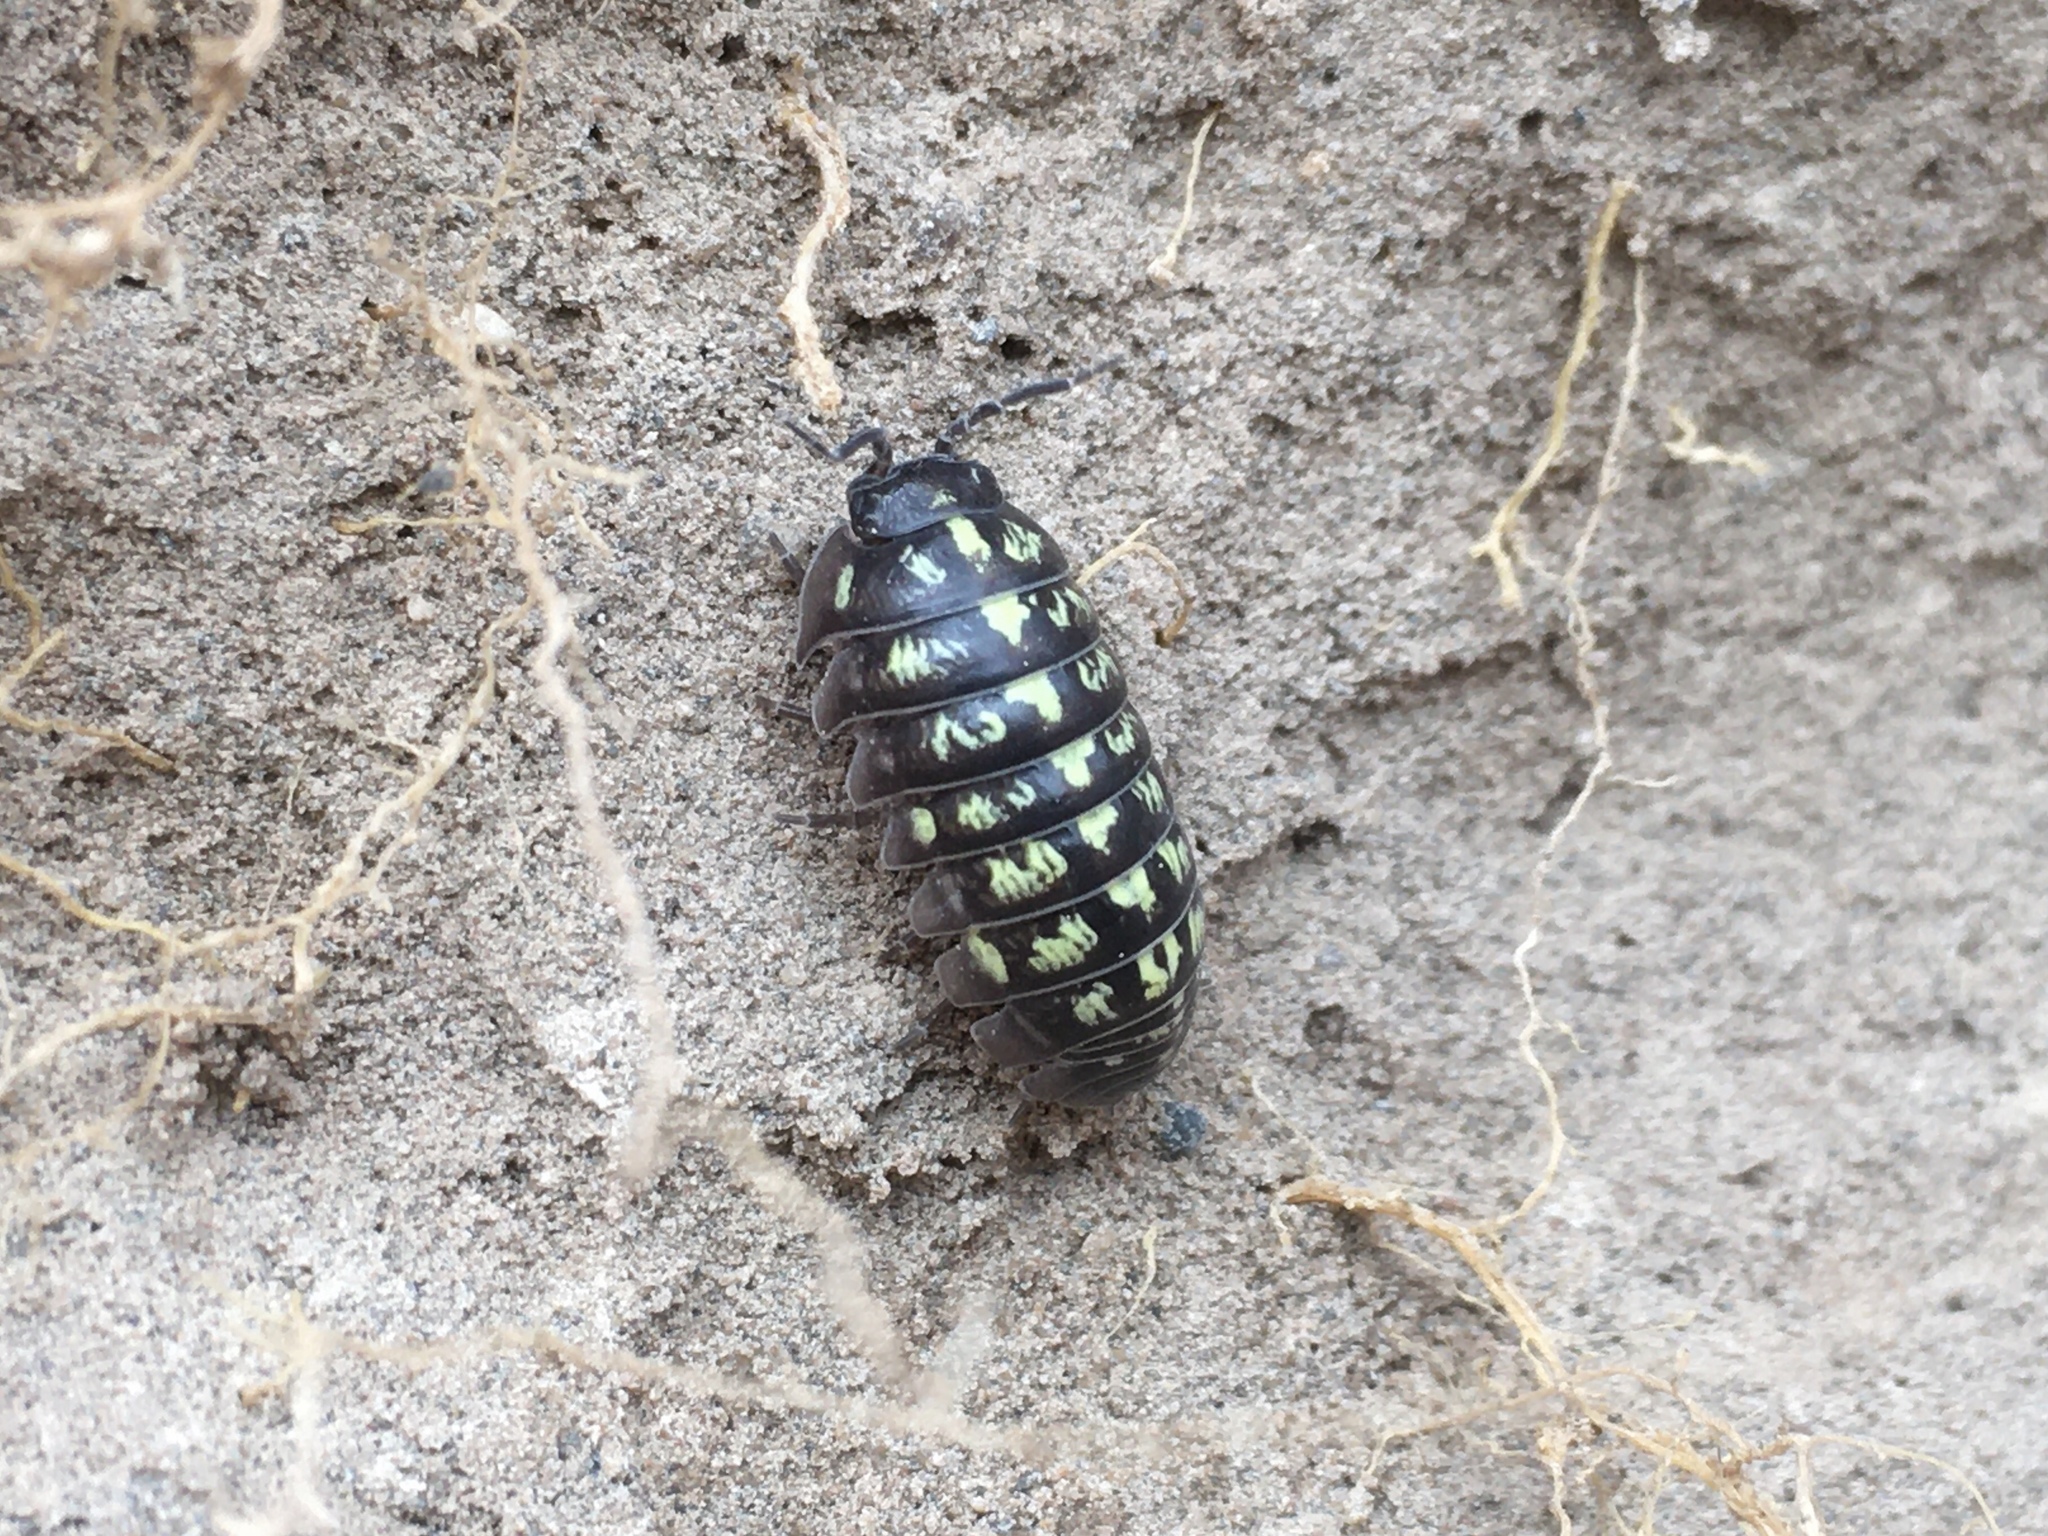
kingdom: Animalia
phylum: Arthropoda
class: Malacostraca
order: Isopoda
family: Armadillidiidae
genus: Armadillidium
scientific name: Armadillidium vulgare
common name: Common pill woodlouse
